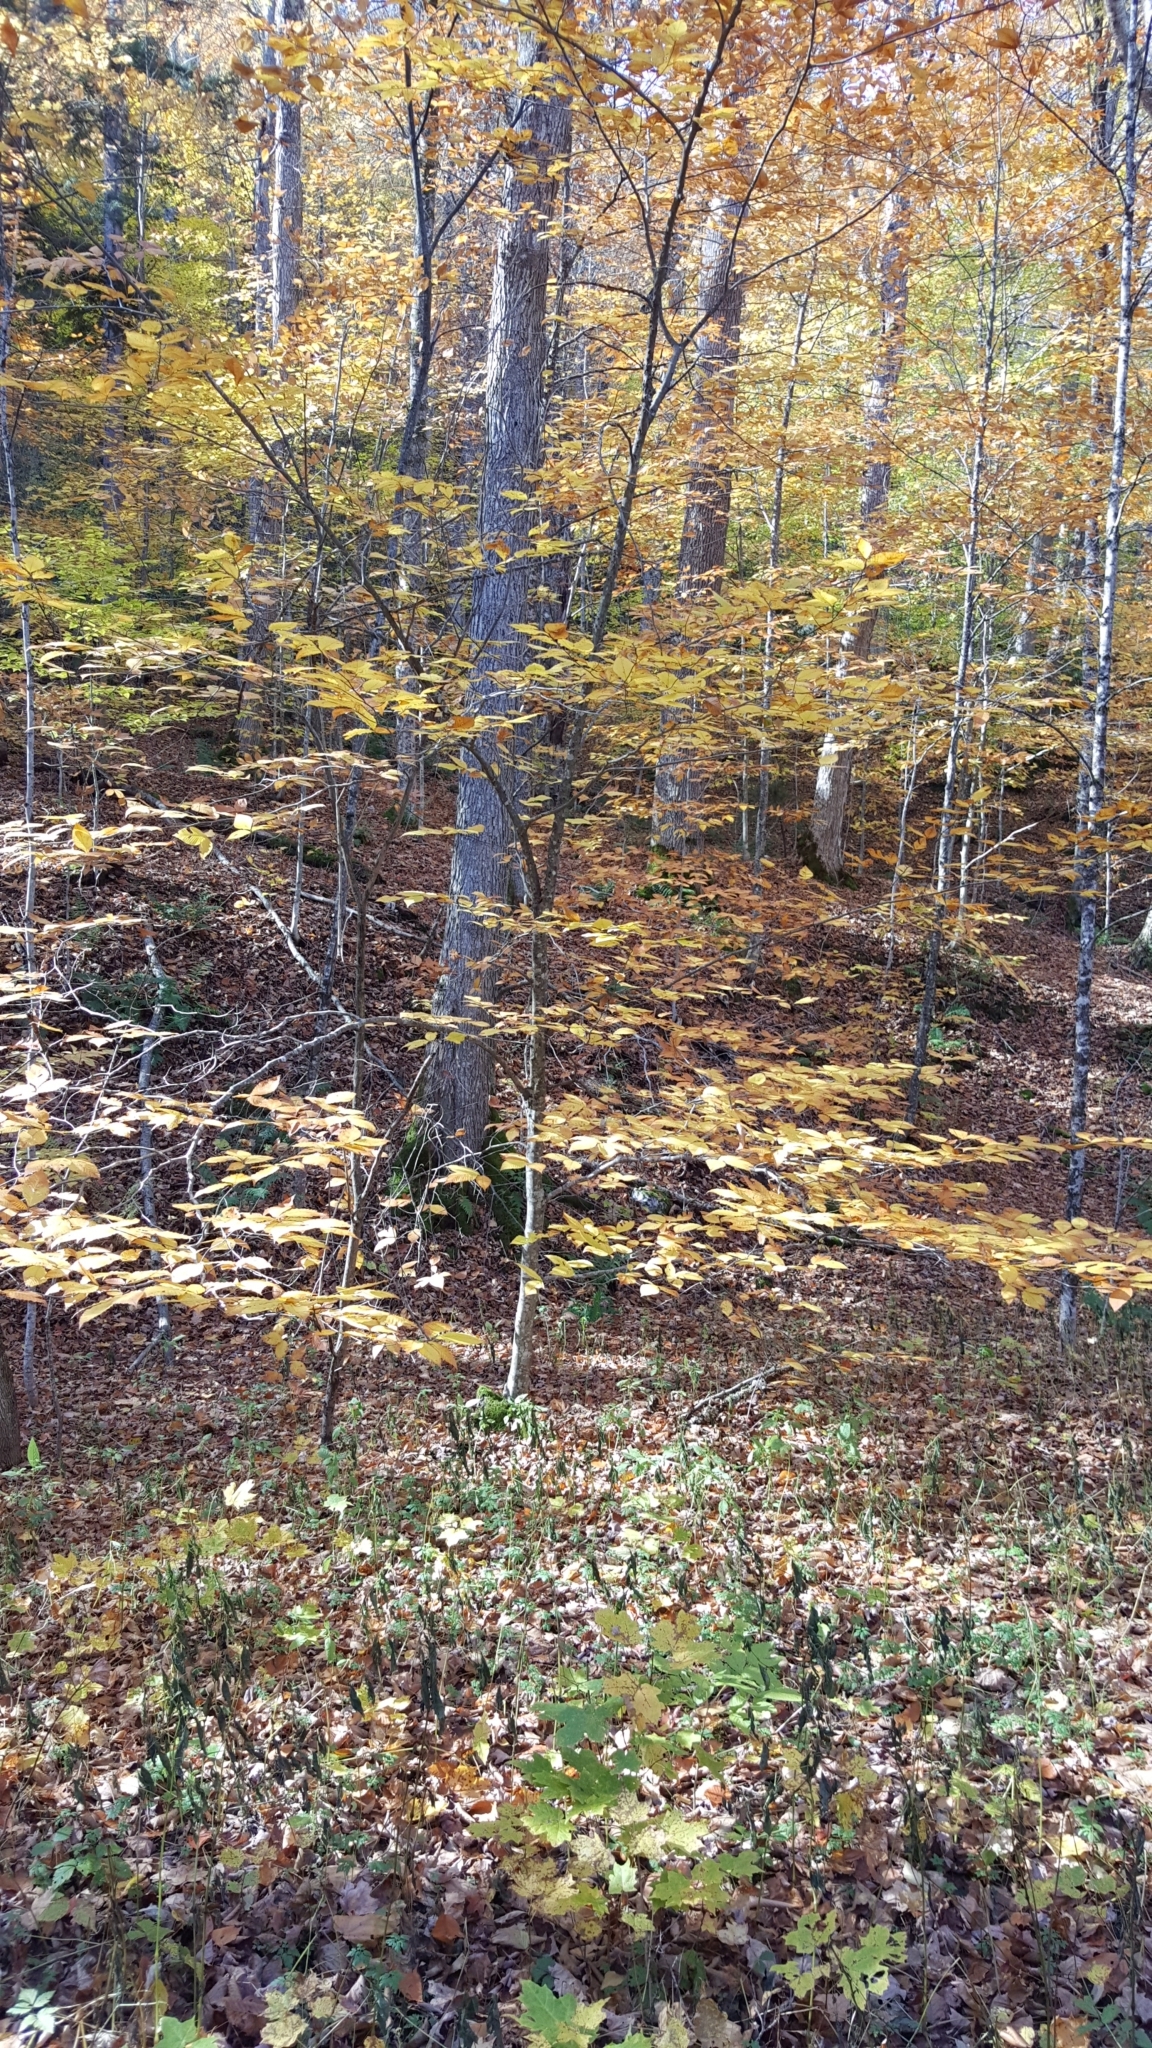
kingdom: Plantae
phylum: Tracheophyta
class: Magnoliopsida
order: Fagales
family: Fagaceae
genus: Fagus
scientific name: Fagus grandifolia
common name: American beech
